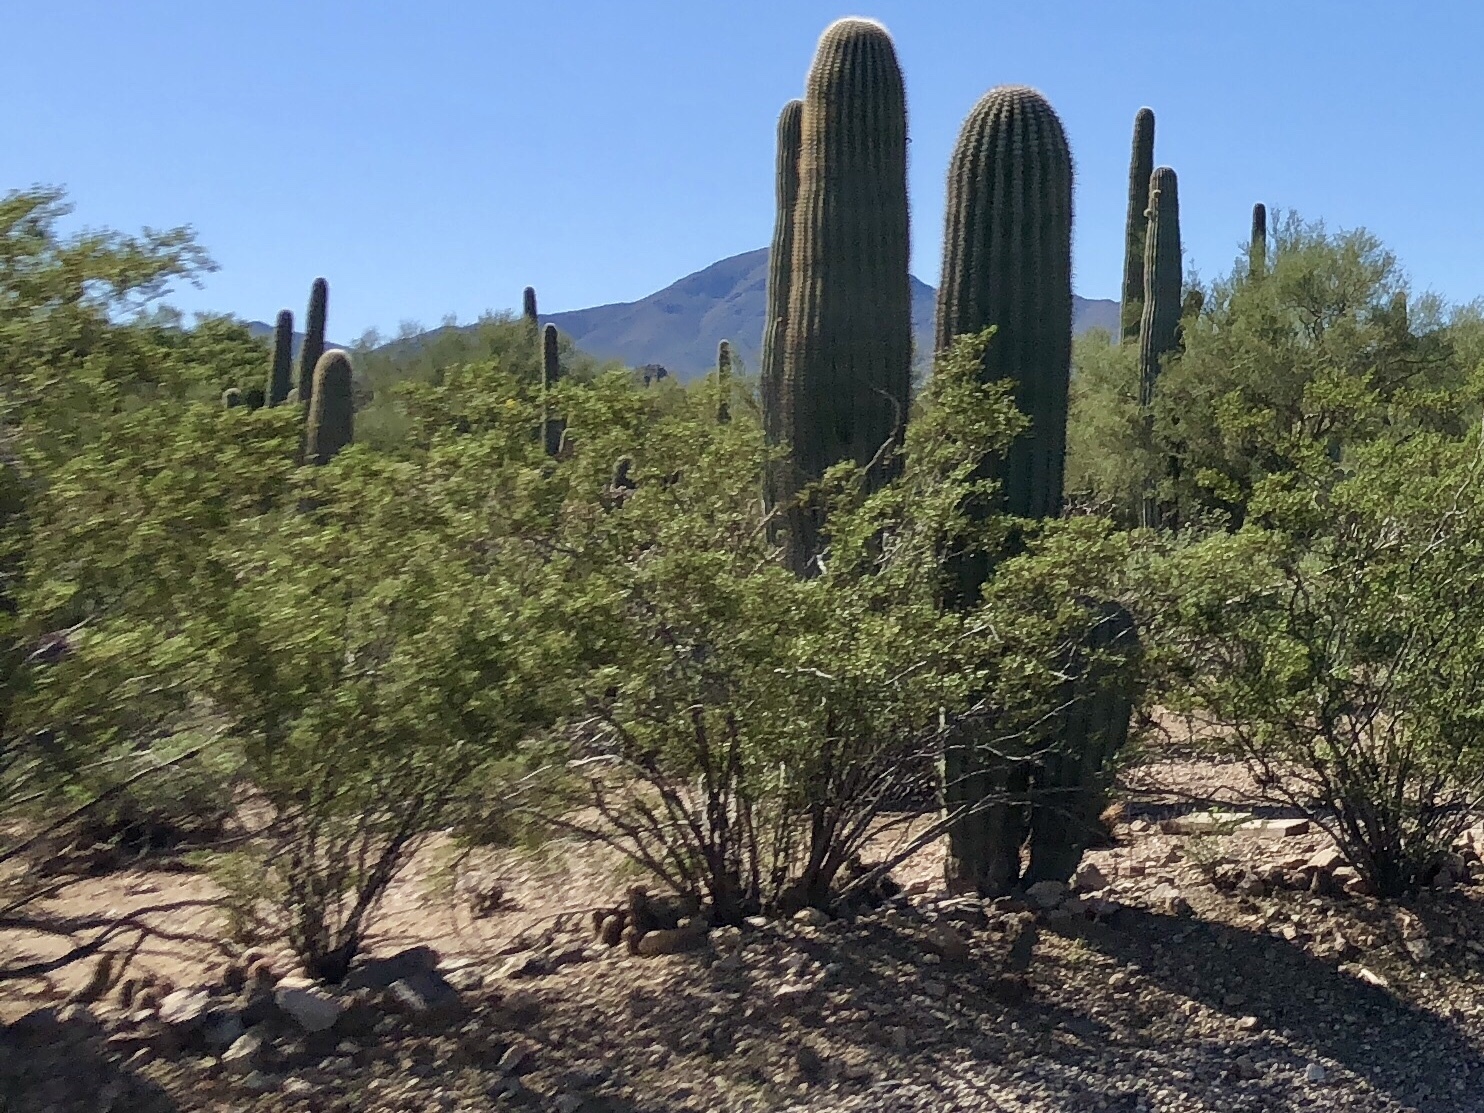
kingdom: Plantae
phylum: Tracheophyta
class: Magnoliopsida
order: Zygophyllales
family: Zygophyllaceae
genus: Larrea
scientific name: Larrea tridentata
